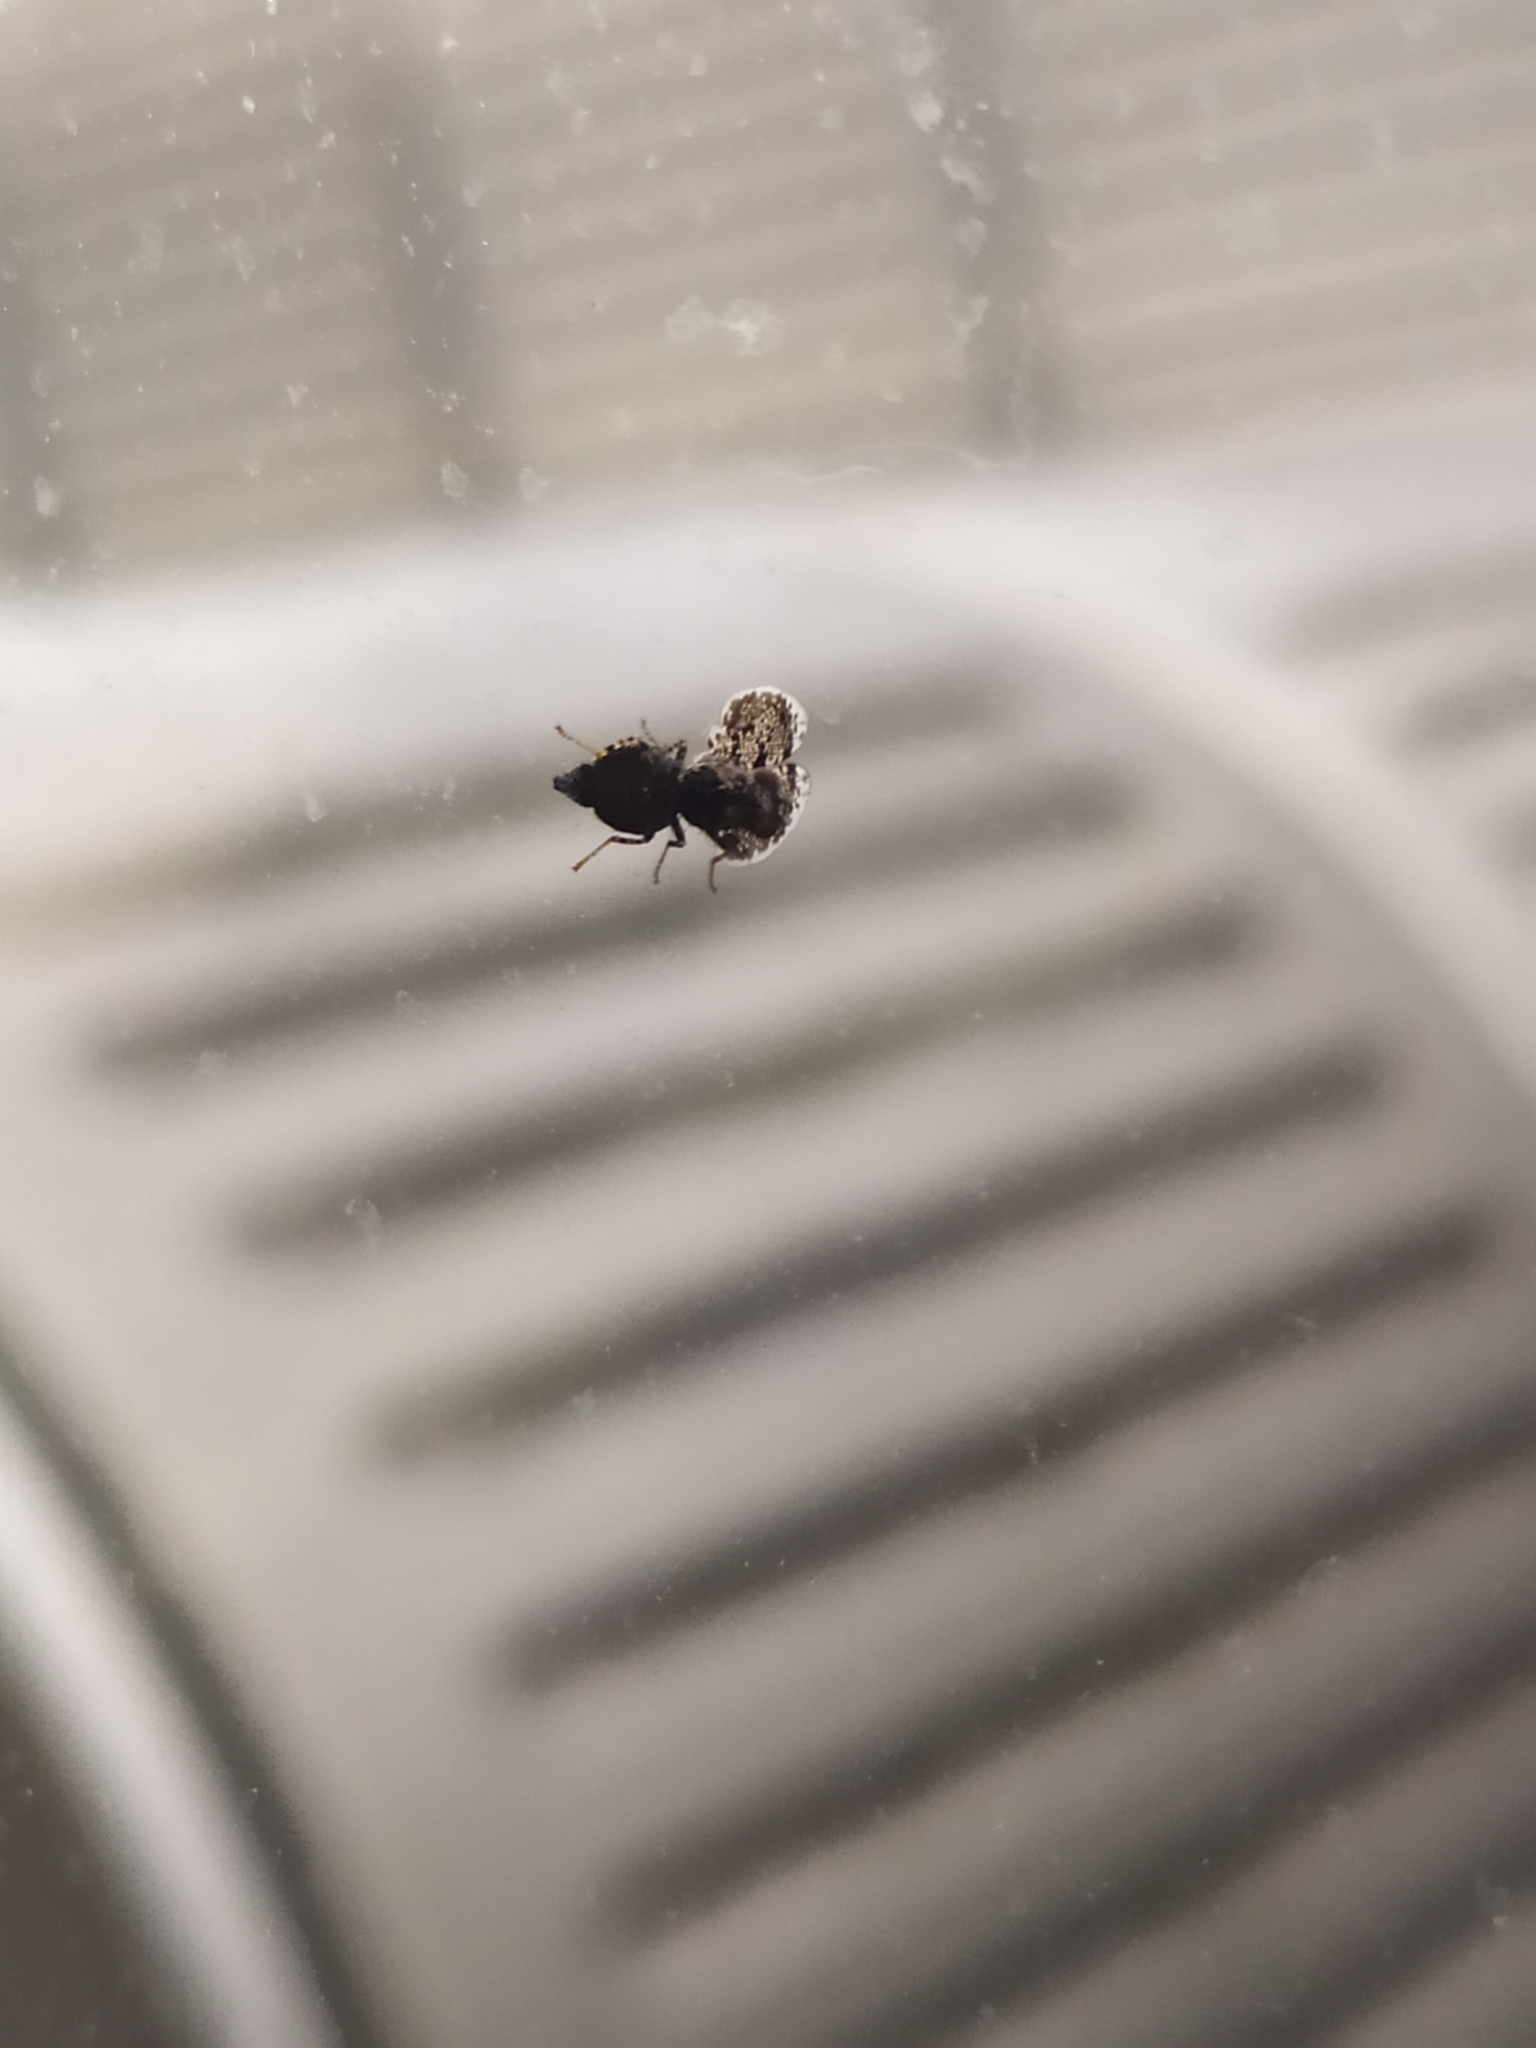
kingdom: Animalia
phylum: Arthropoda
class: Insecta
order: Diptera
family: Ulidiidae
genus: Callopistromyia
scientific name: Callopistromyia annulipes
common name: Peacock fly
